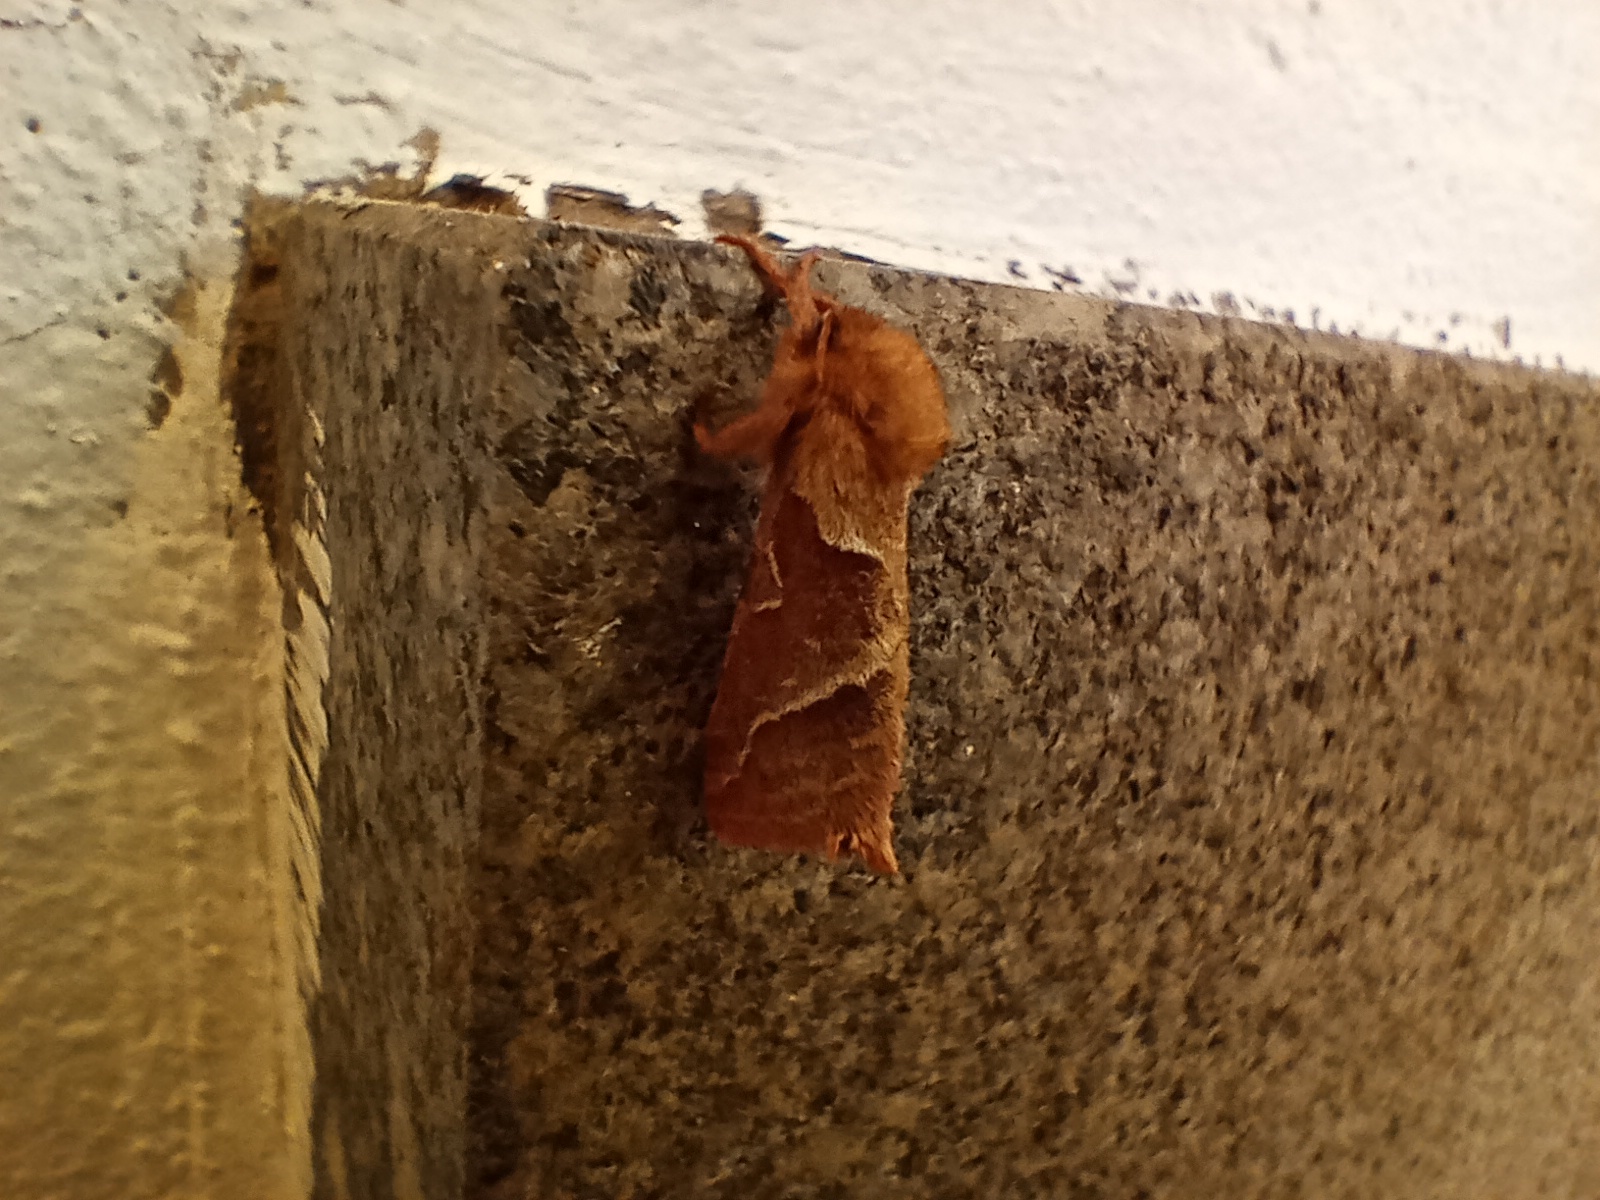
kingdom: Animalia
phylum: Arthropoda
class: Insecta
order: Lepidoptera
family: Hepialidae
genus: Triodia
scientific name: Triodia sylvina
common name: Orange swift
